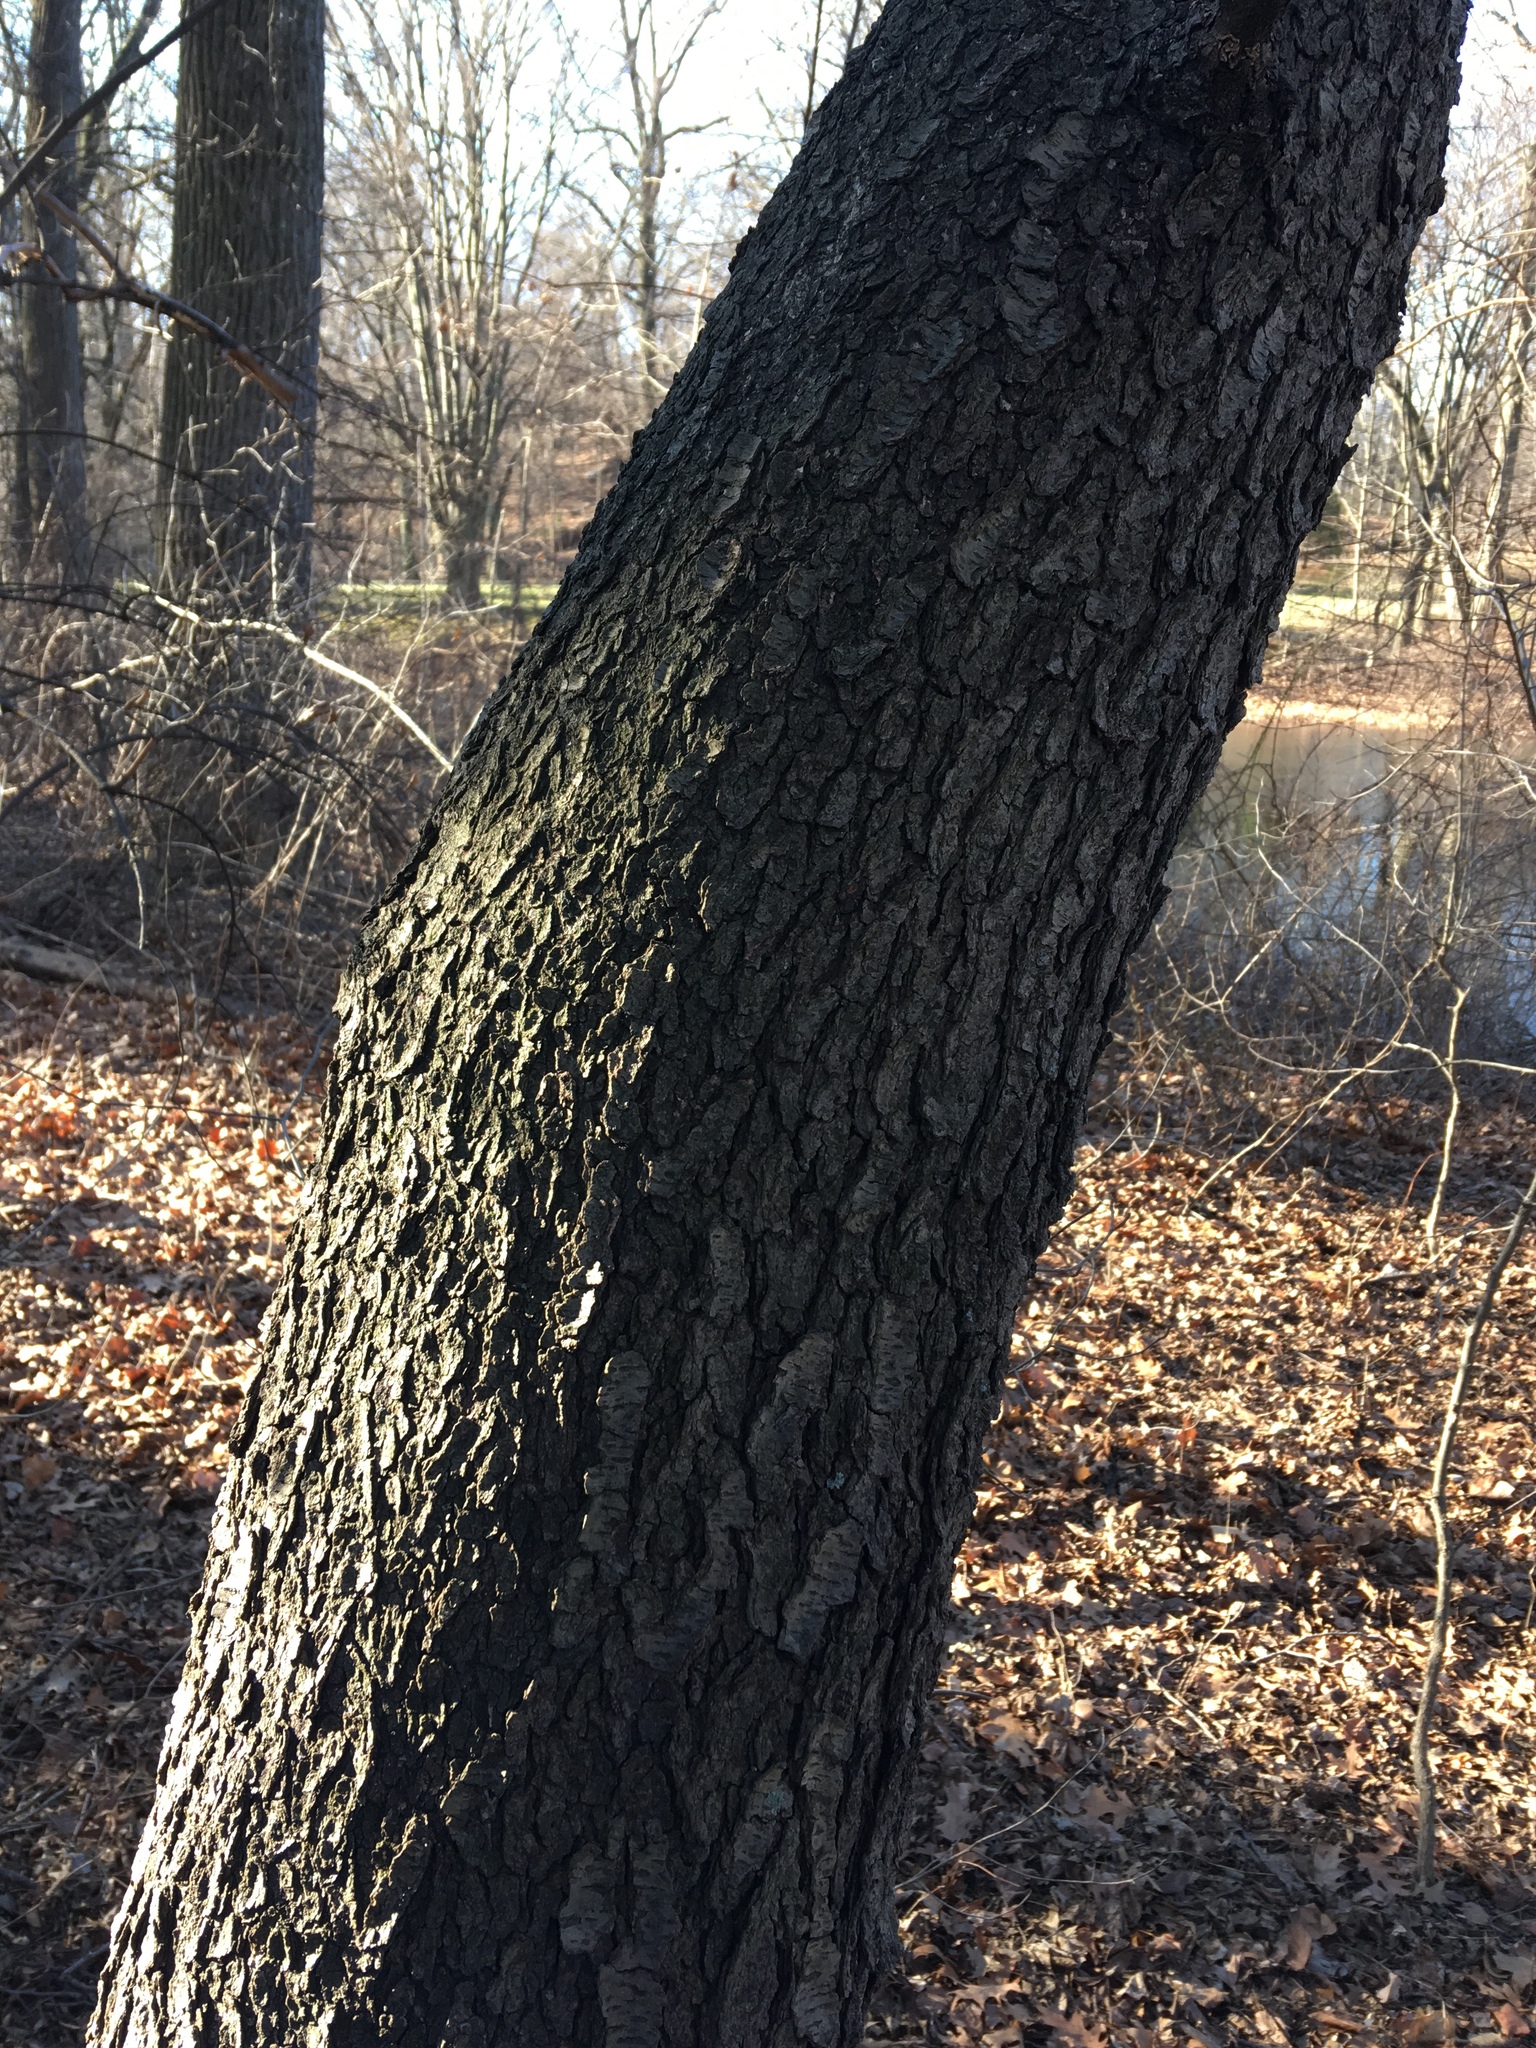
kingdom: Plantae
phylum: Tracheophyta
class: Magnoliopsida
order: Rosales
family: Rosaceae
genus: Prunus
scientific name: Prunus serotina
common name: Black cherry
